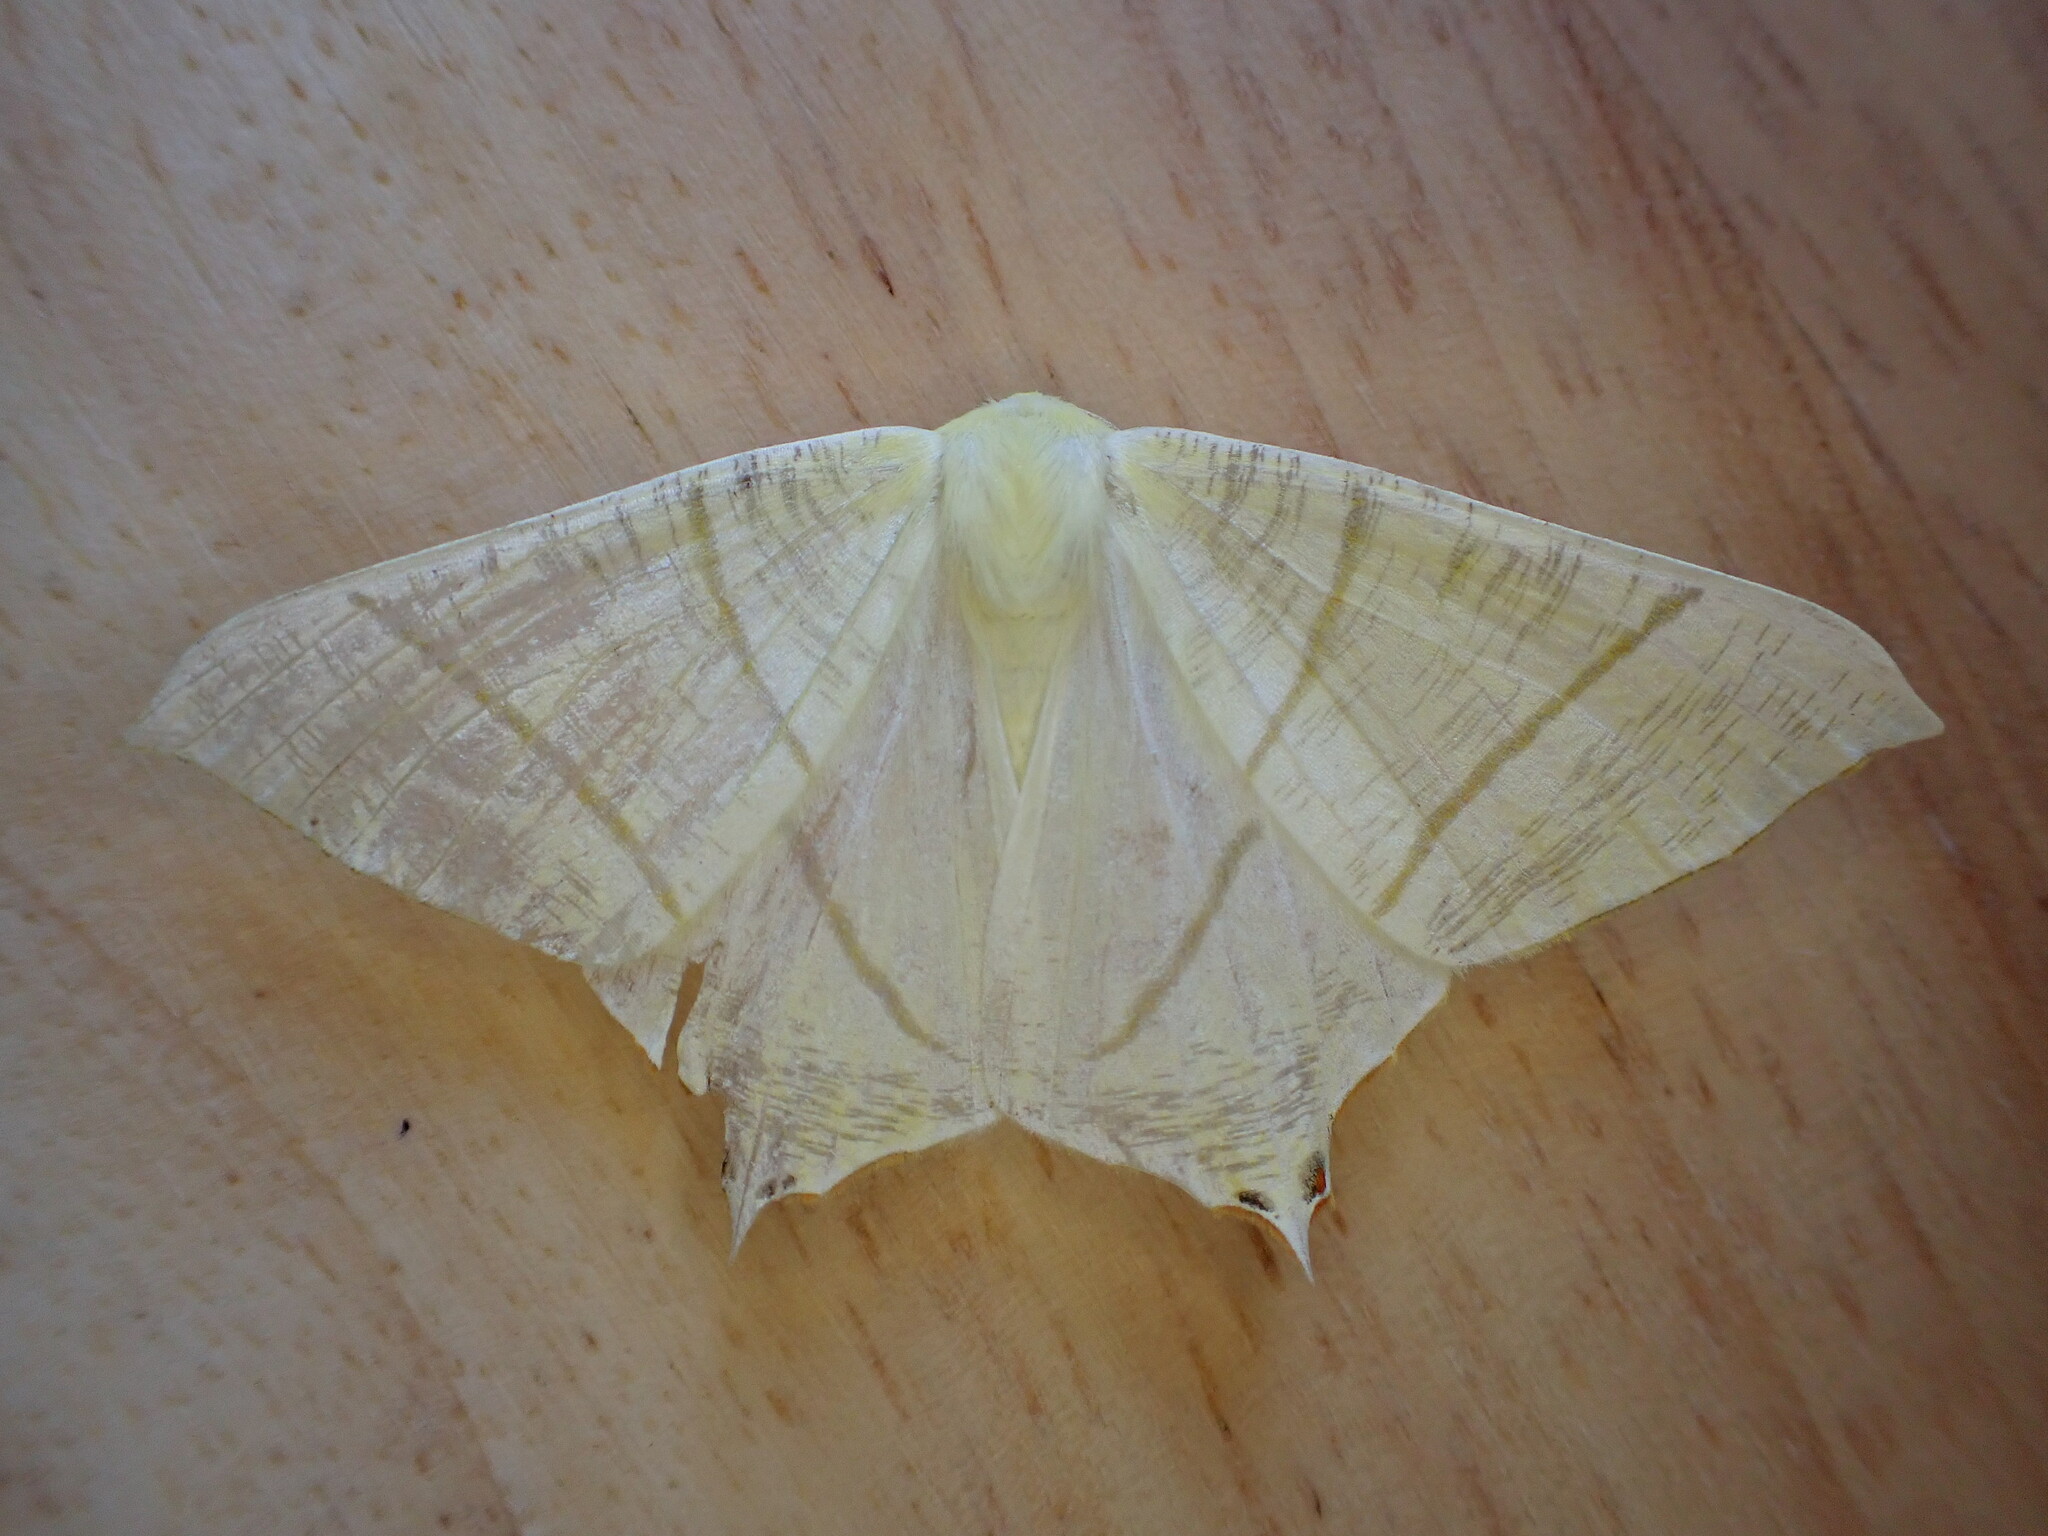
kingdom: Animalia
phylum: Arthropoda
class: Insecta
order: Lepidoptera
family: Geometridae
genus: Ourapteryx
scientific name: Ourapteryx sambucaria
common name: Swallow-tailed moth
